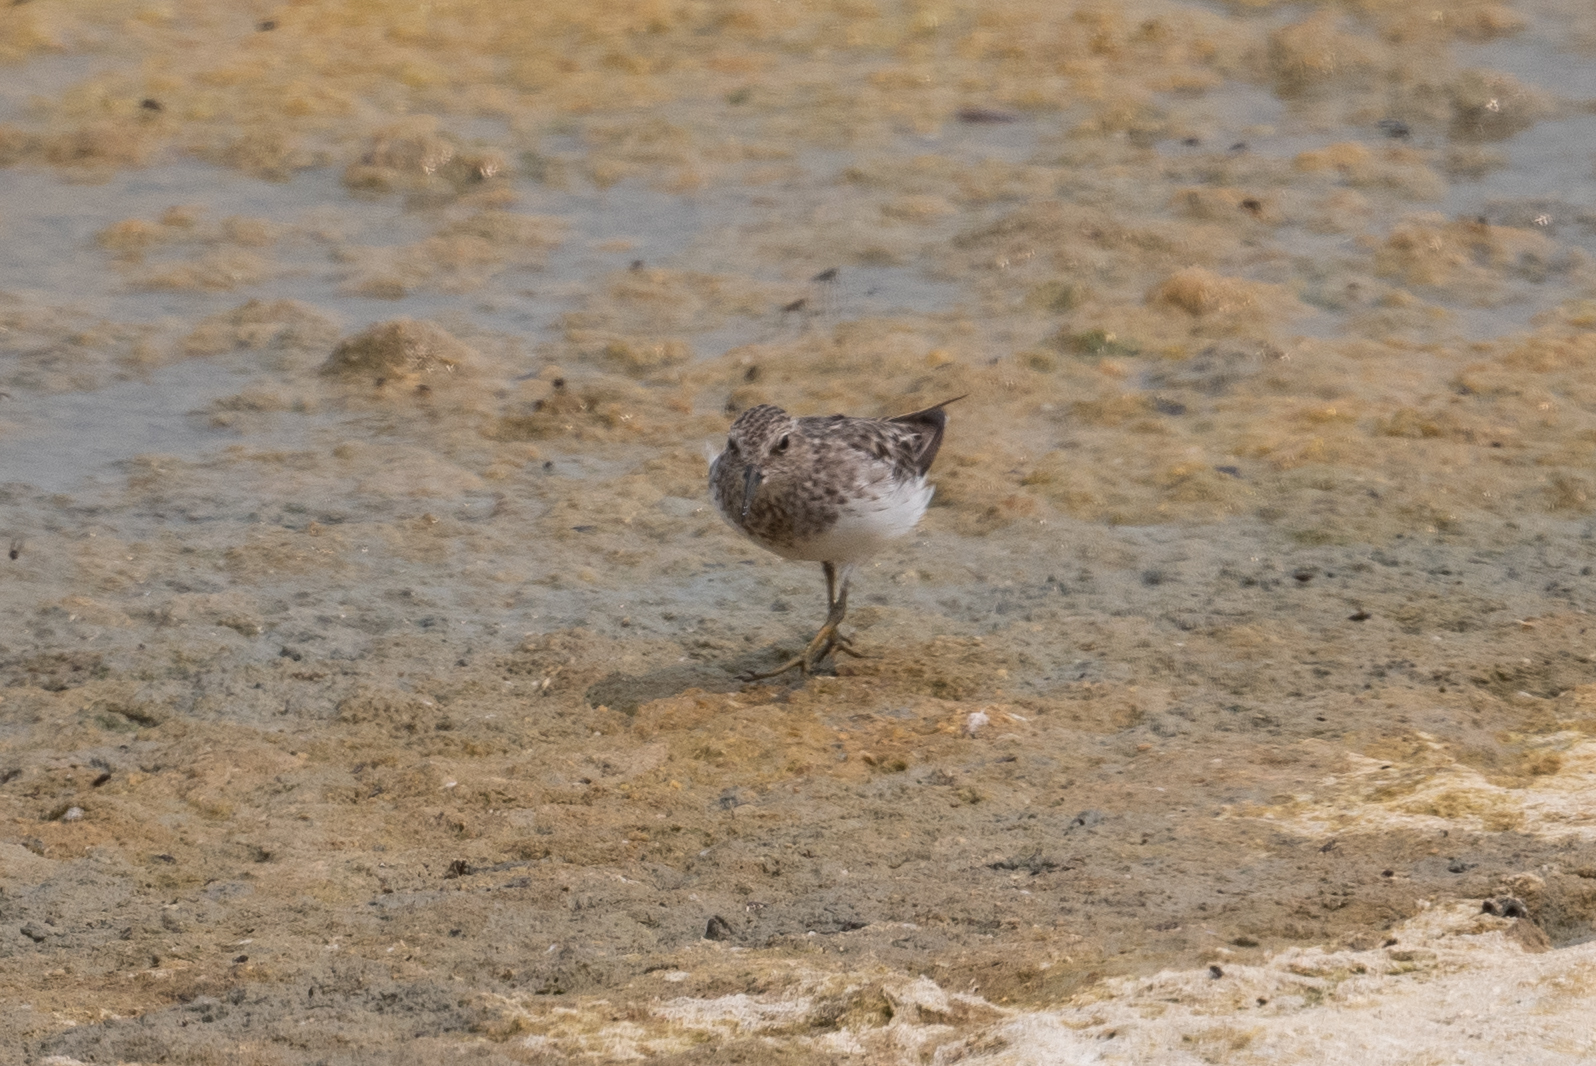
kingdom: Animalia
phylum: Chordata
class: Aves
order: Charadriiformes
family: Scolopacidae
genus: Calidris
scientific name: Calidris minutilla
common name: Least sandpiper
